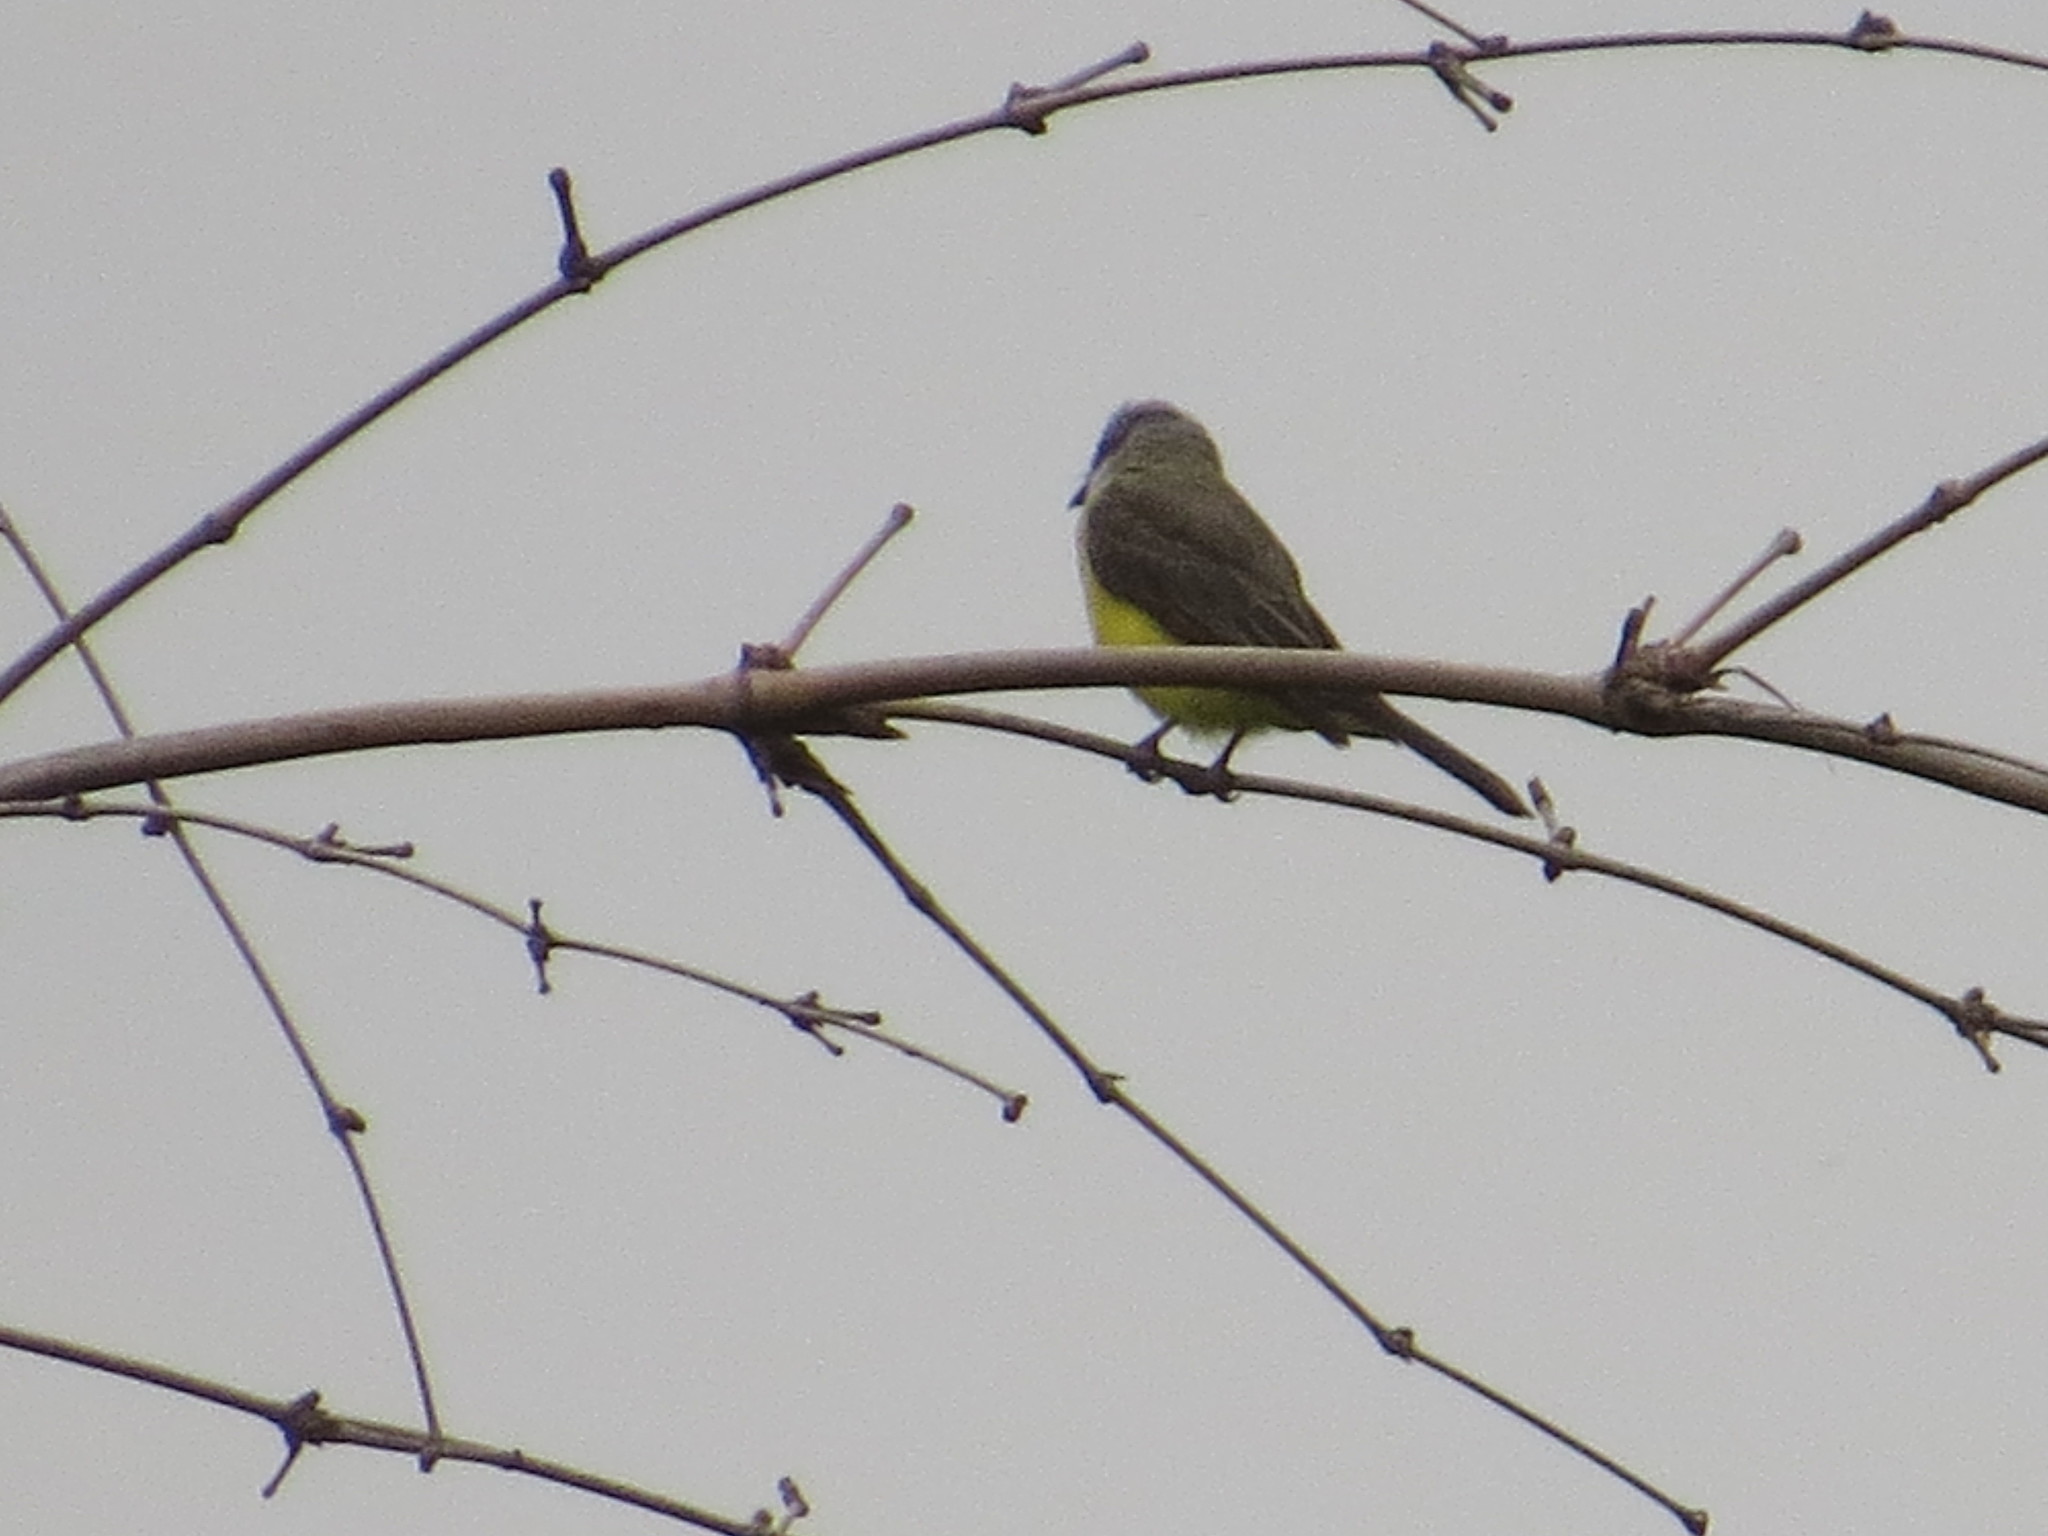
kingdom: Animalia
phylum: Chordata
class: Aves
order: Passeriformes
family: Tyrannidae
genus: Tyrannus
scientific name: Tyrannus melancholicus
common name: Tropical kingbird
